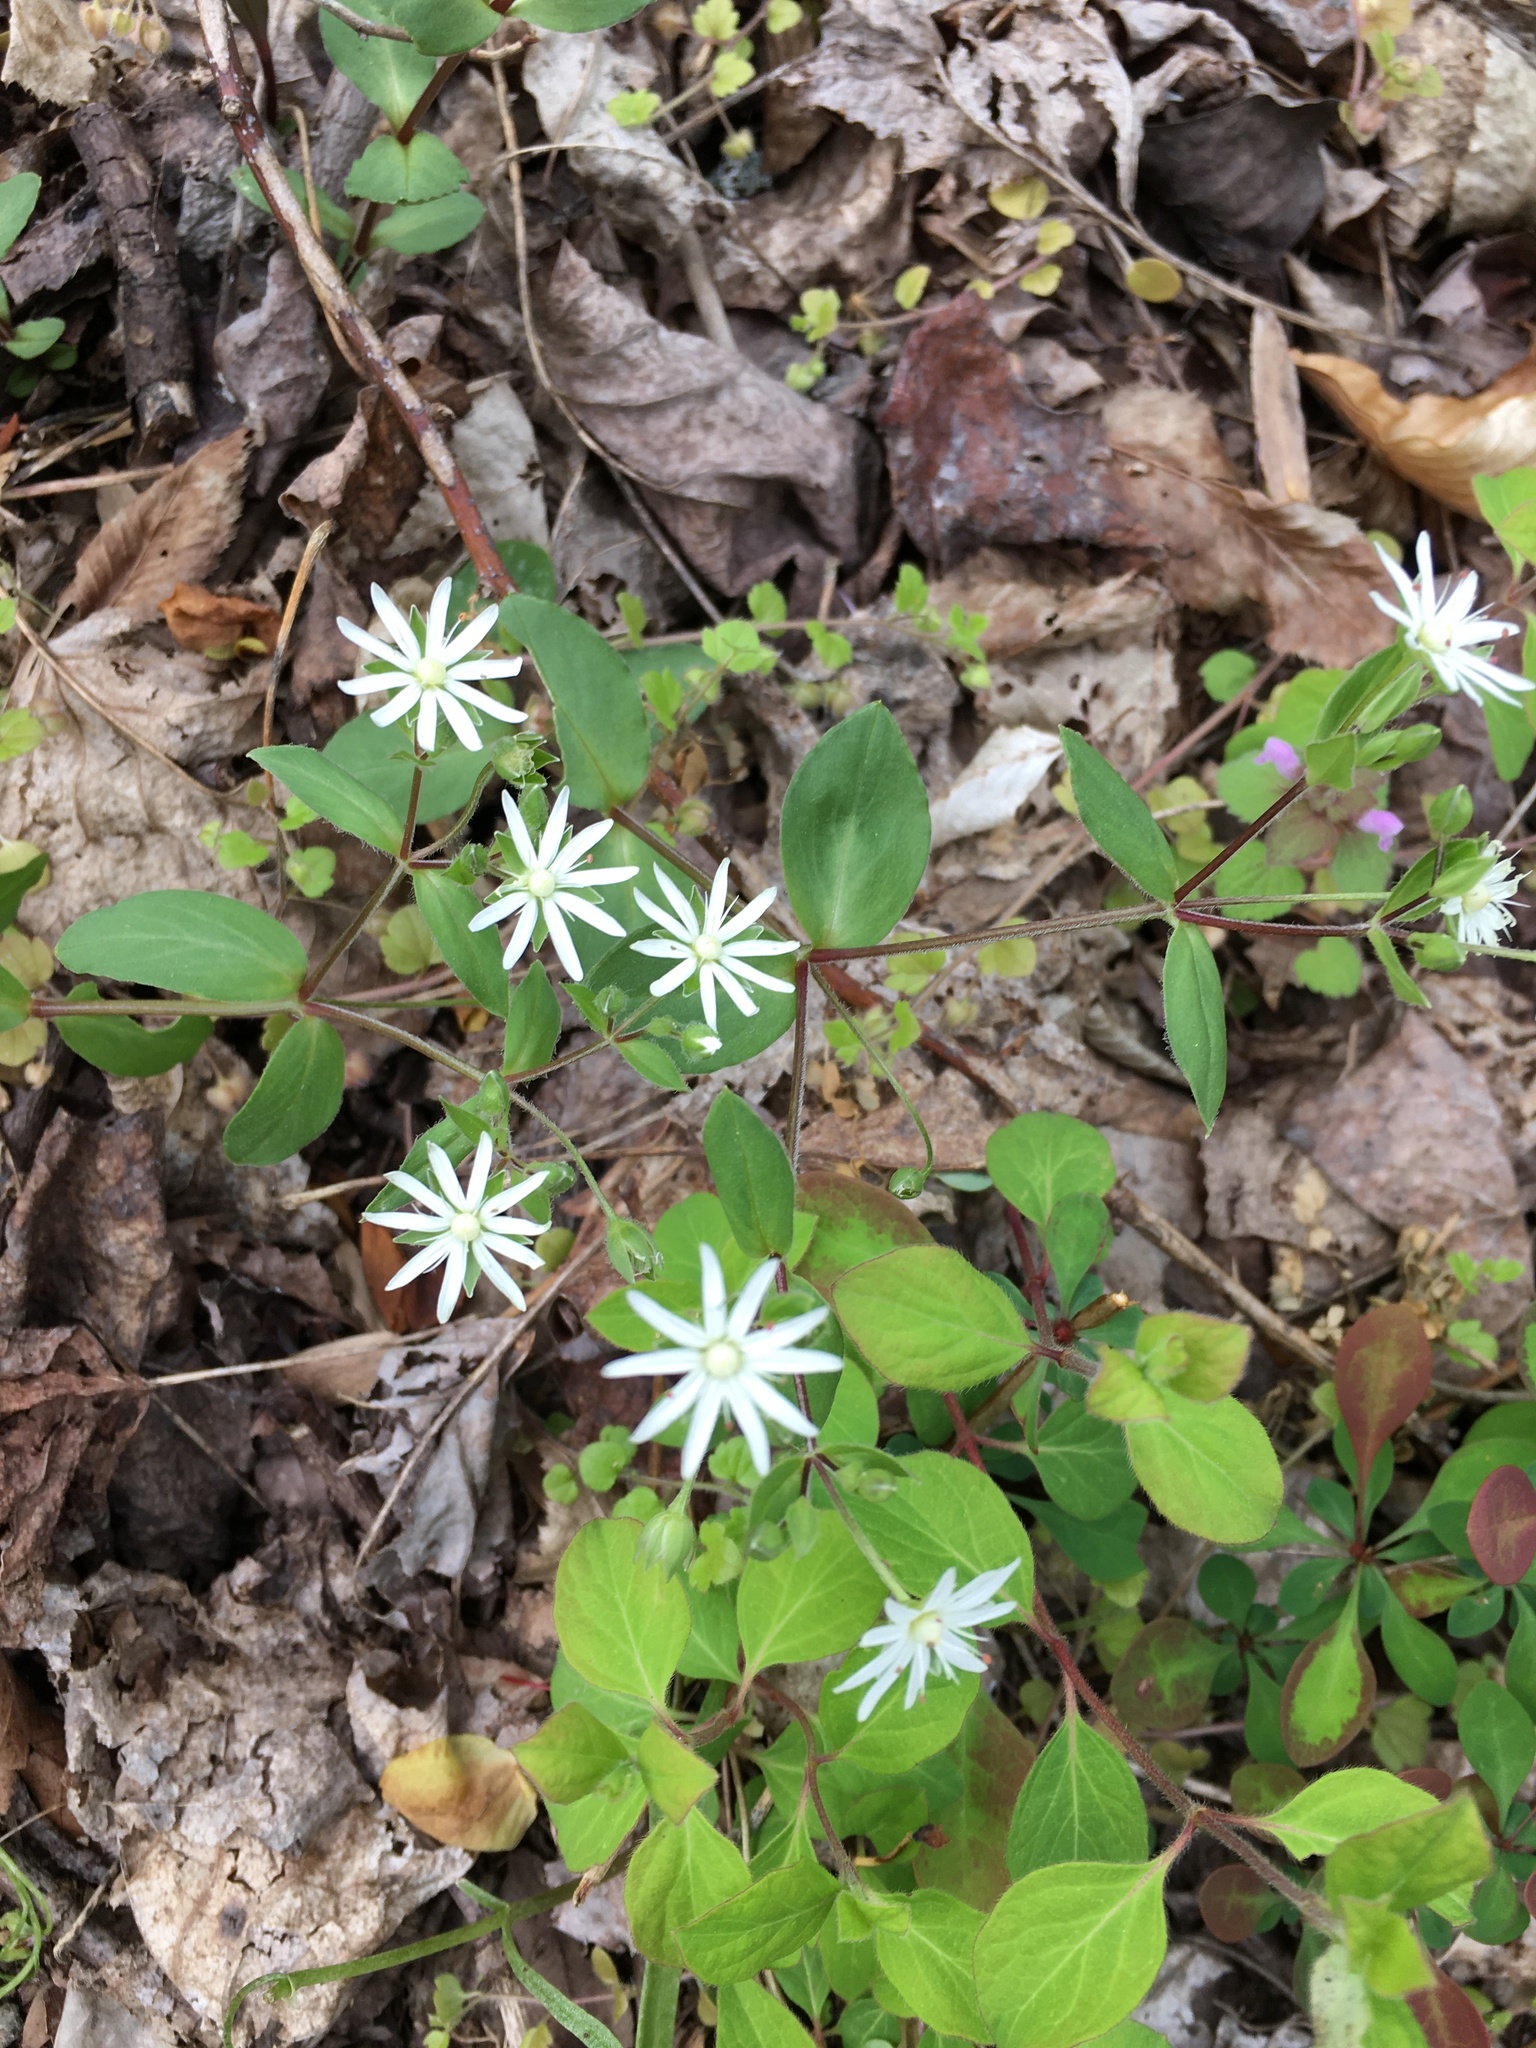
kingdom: Plantae
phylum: Tracheophyta
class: Magnoliopsida
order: Caryophyllales
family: Caryophyllaceae
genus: Stellaria
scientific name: Stellaria pubera
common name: Star chickweed
